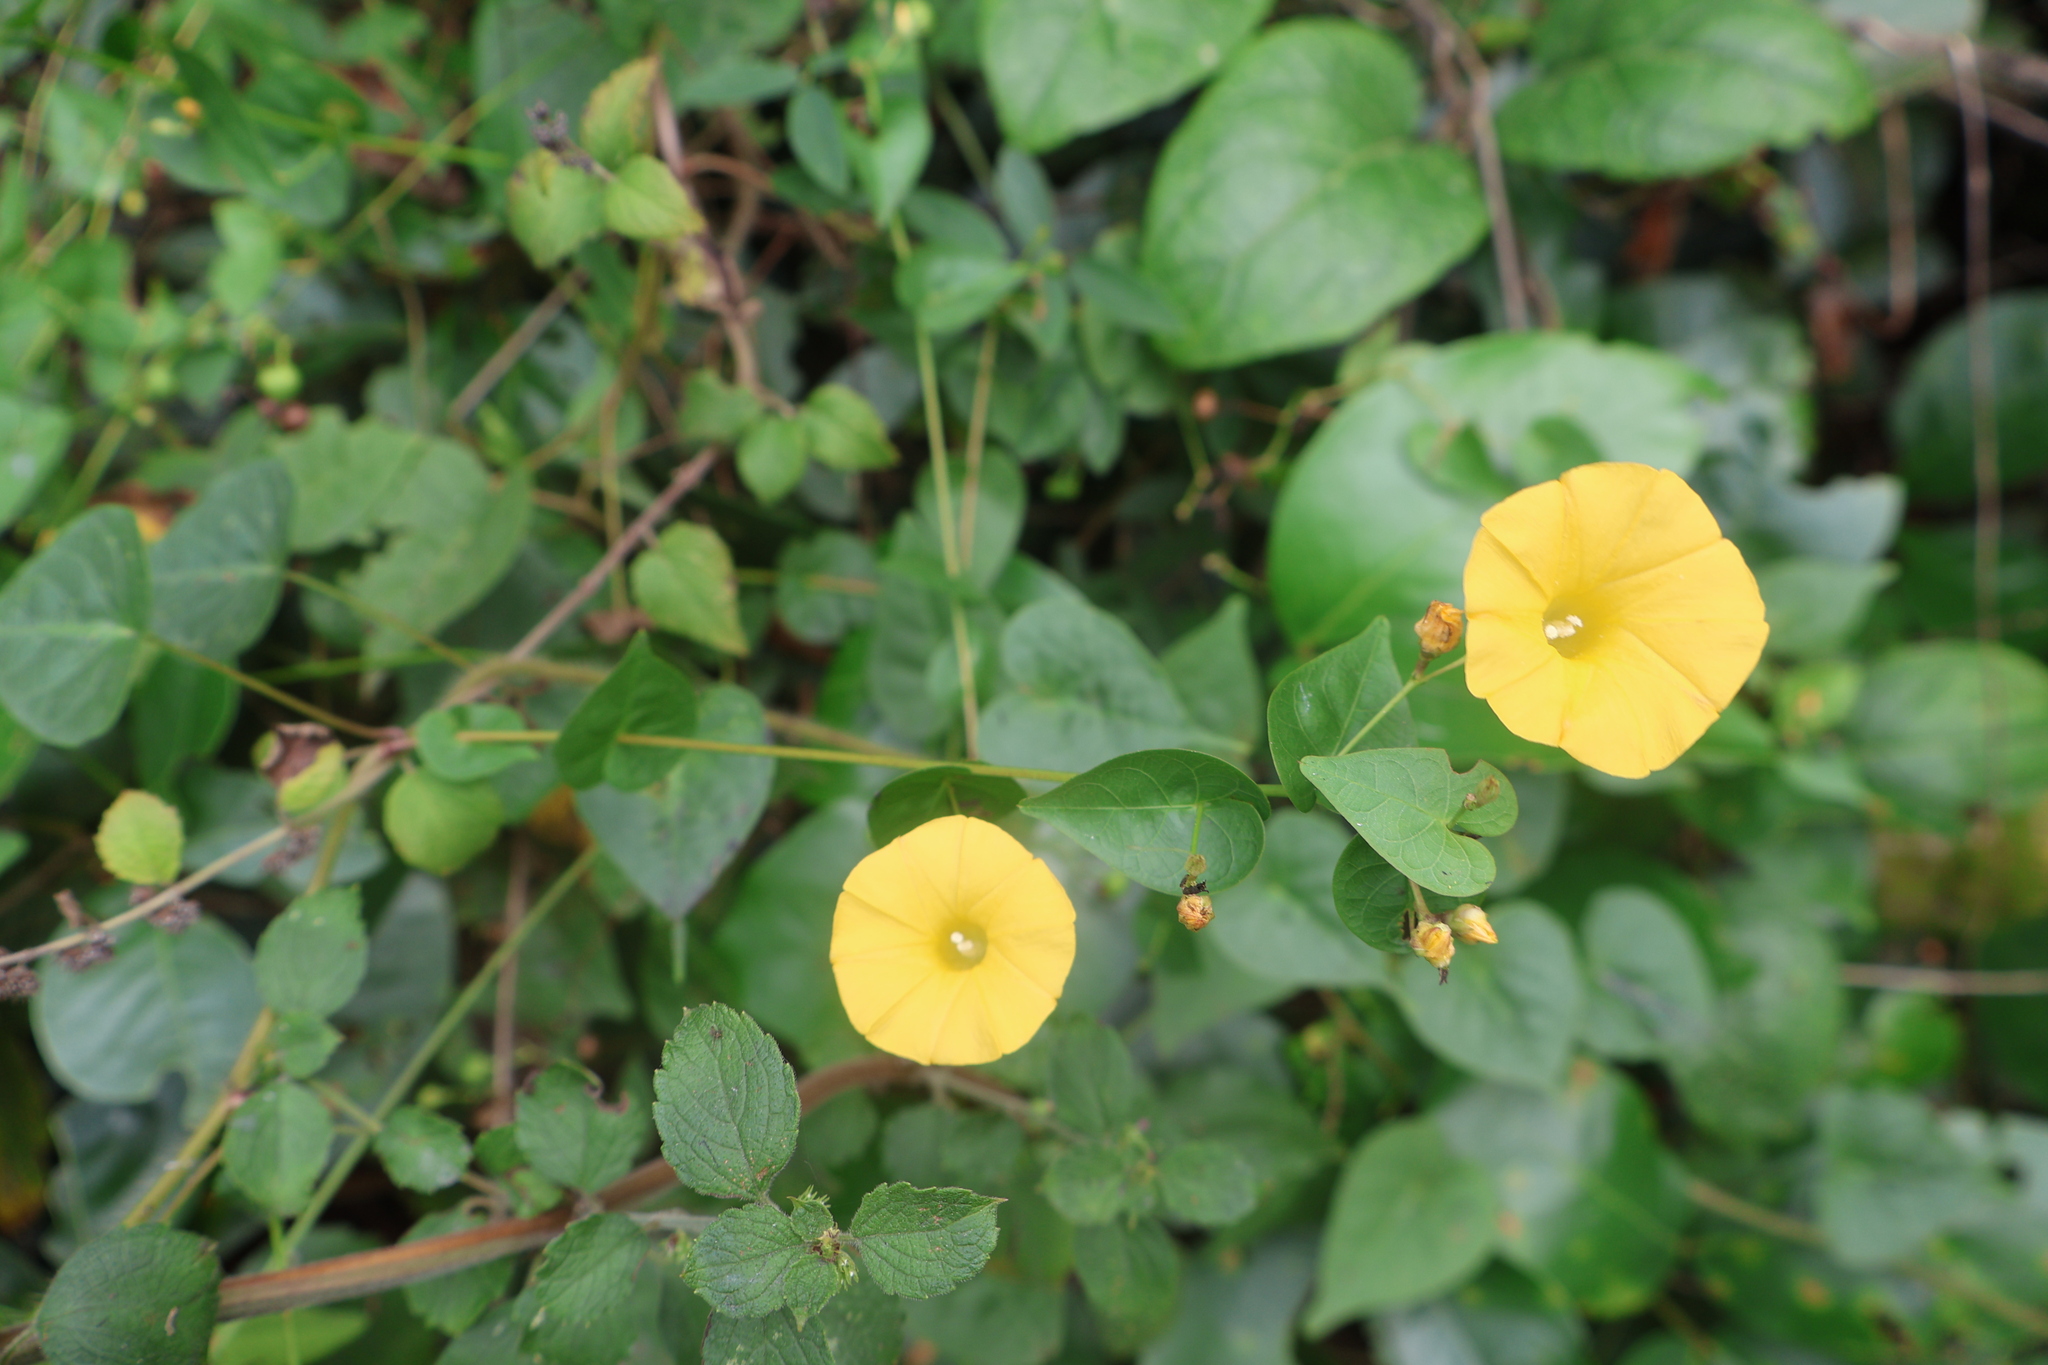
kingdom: Plantae
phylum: Tracheophyta
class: Magnoliopsida
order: Solanales
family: Convolvulaceae
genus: Ipomoea
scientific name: Ipomoea microsepala
